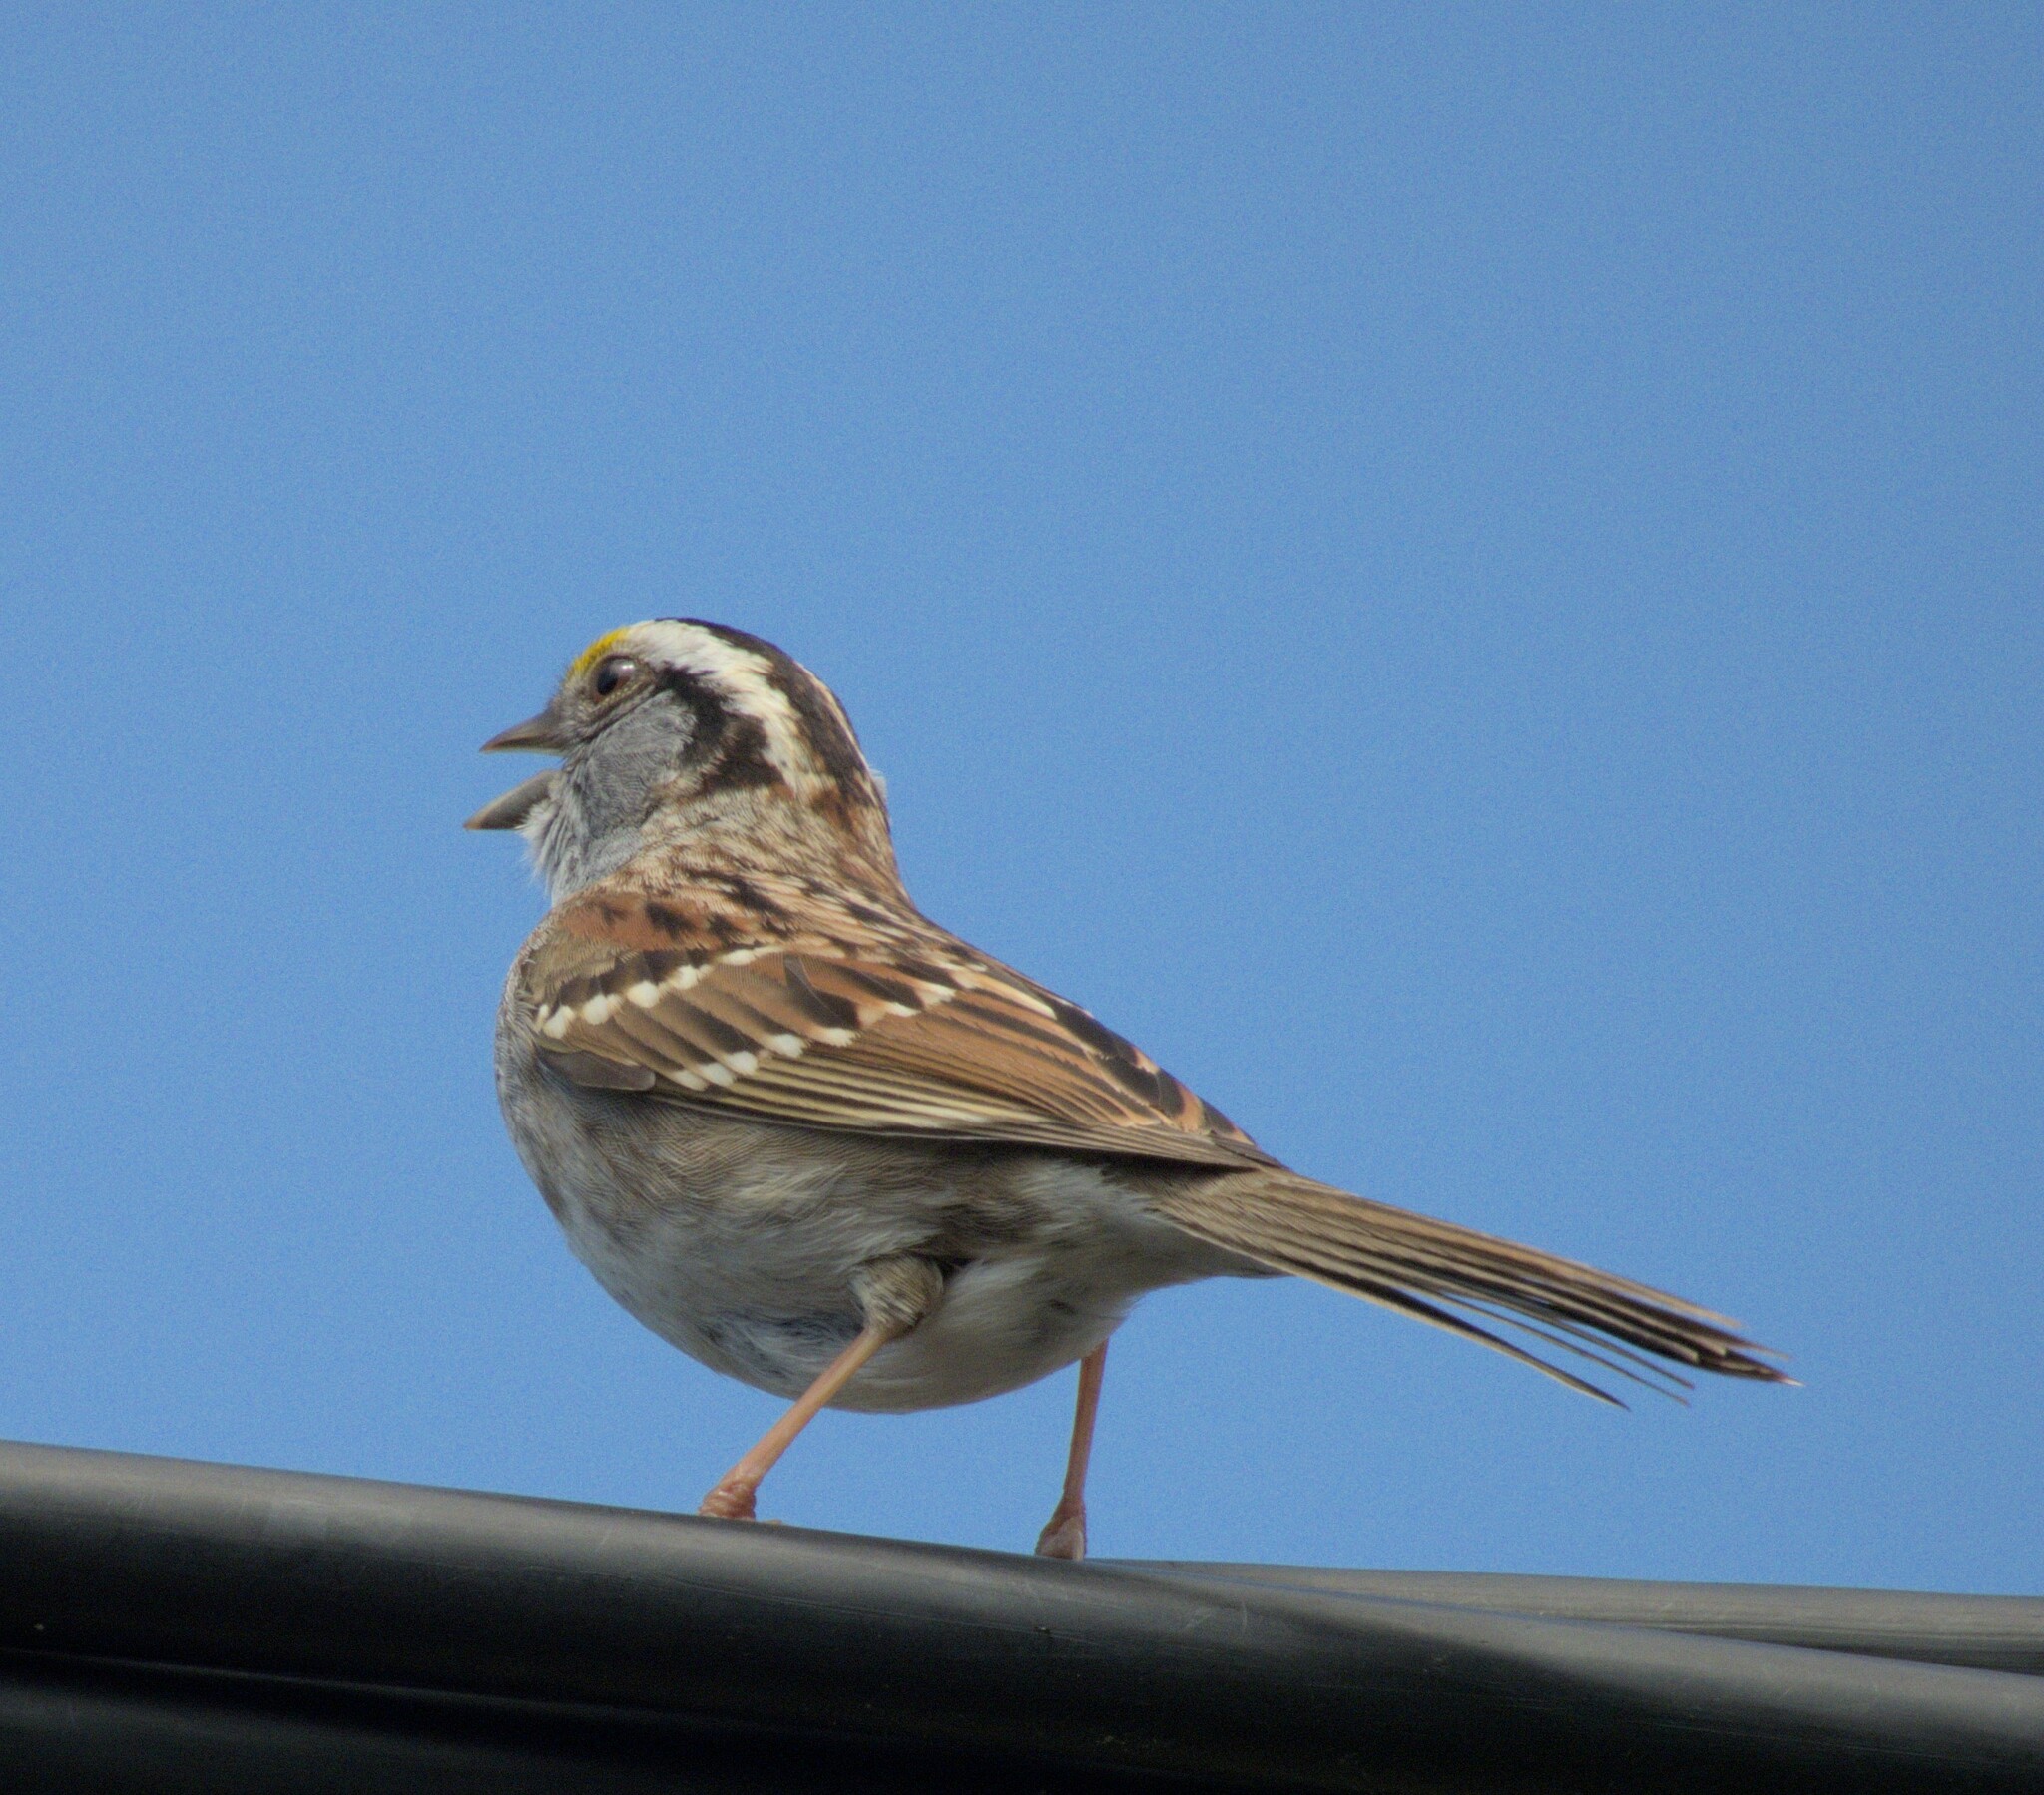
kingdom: Animalia
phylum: Chordata
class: Aves
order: Passeriformes
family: Passerellidae
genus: Zonotrichia
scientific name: Zonotrichia albicollis
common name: White-throated sparrow
